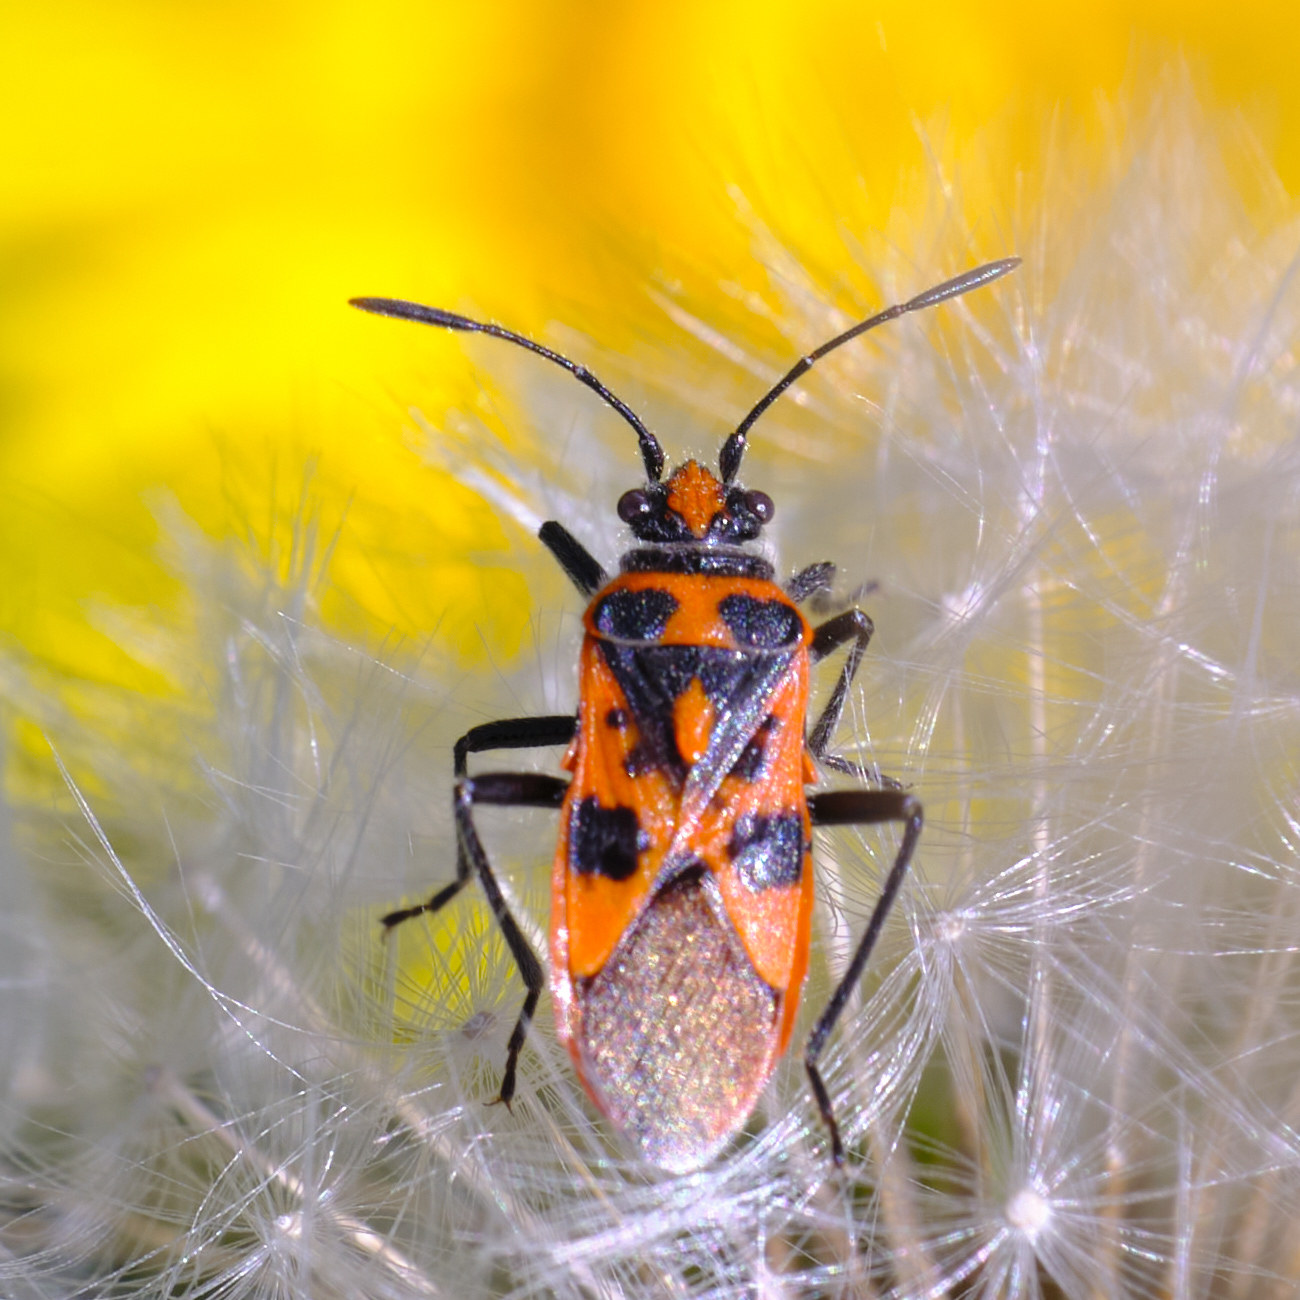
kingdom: Animalia
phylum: Arthropoda
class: Insecta
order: Hemiptera
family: Rhopalidae
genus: Corizus
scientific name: Corizus hyoscyami
